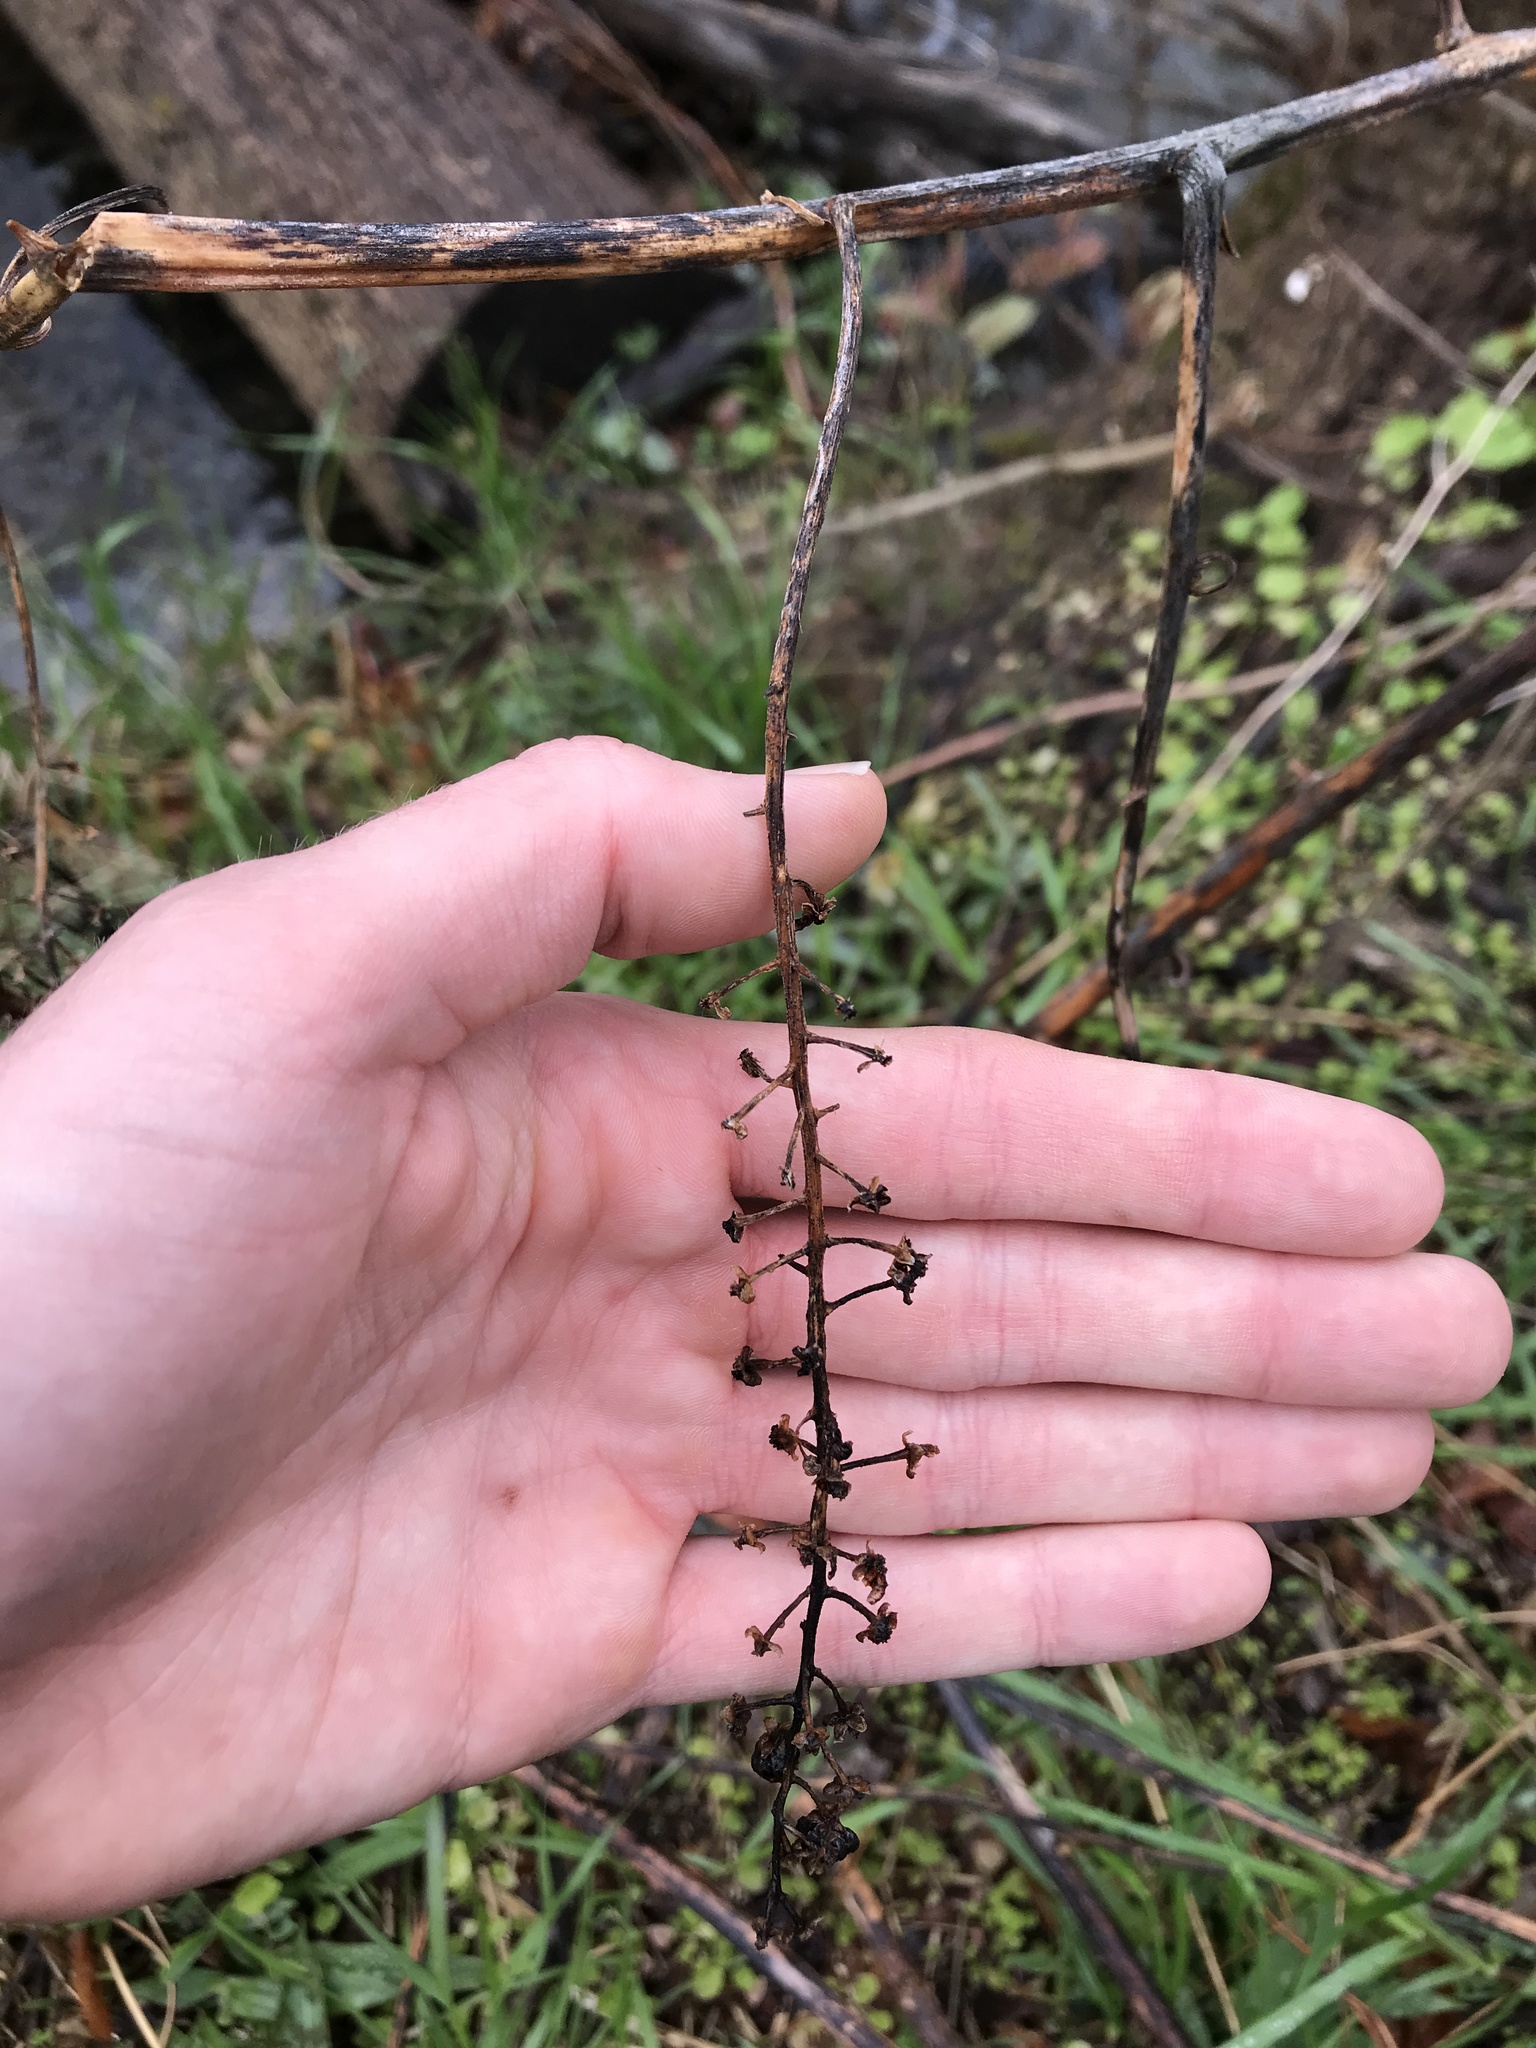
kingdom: Plantae
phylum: Tracheophyta
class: Magnoliopsida
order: Caryophyllales
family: Phytolaccaceae
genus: Phytolacca
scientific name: Phytolacca americana
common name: American pokeweed
